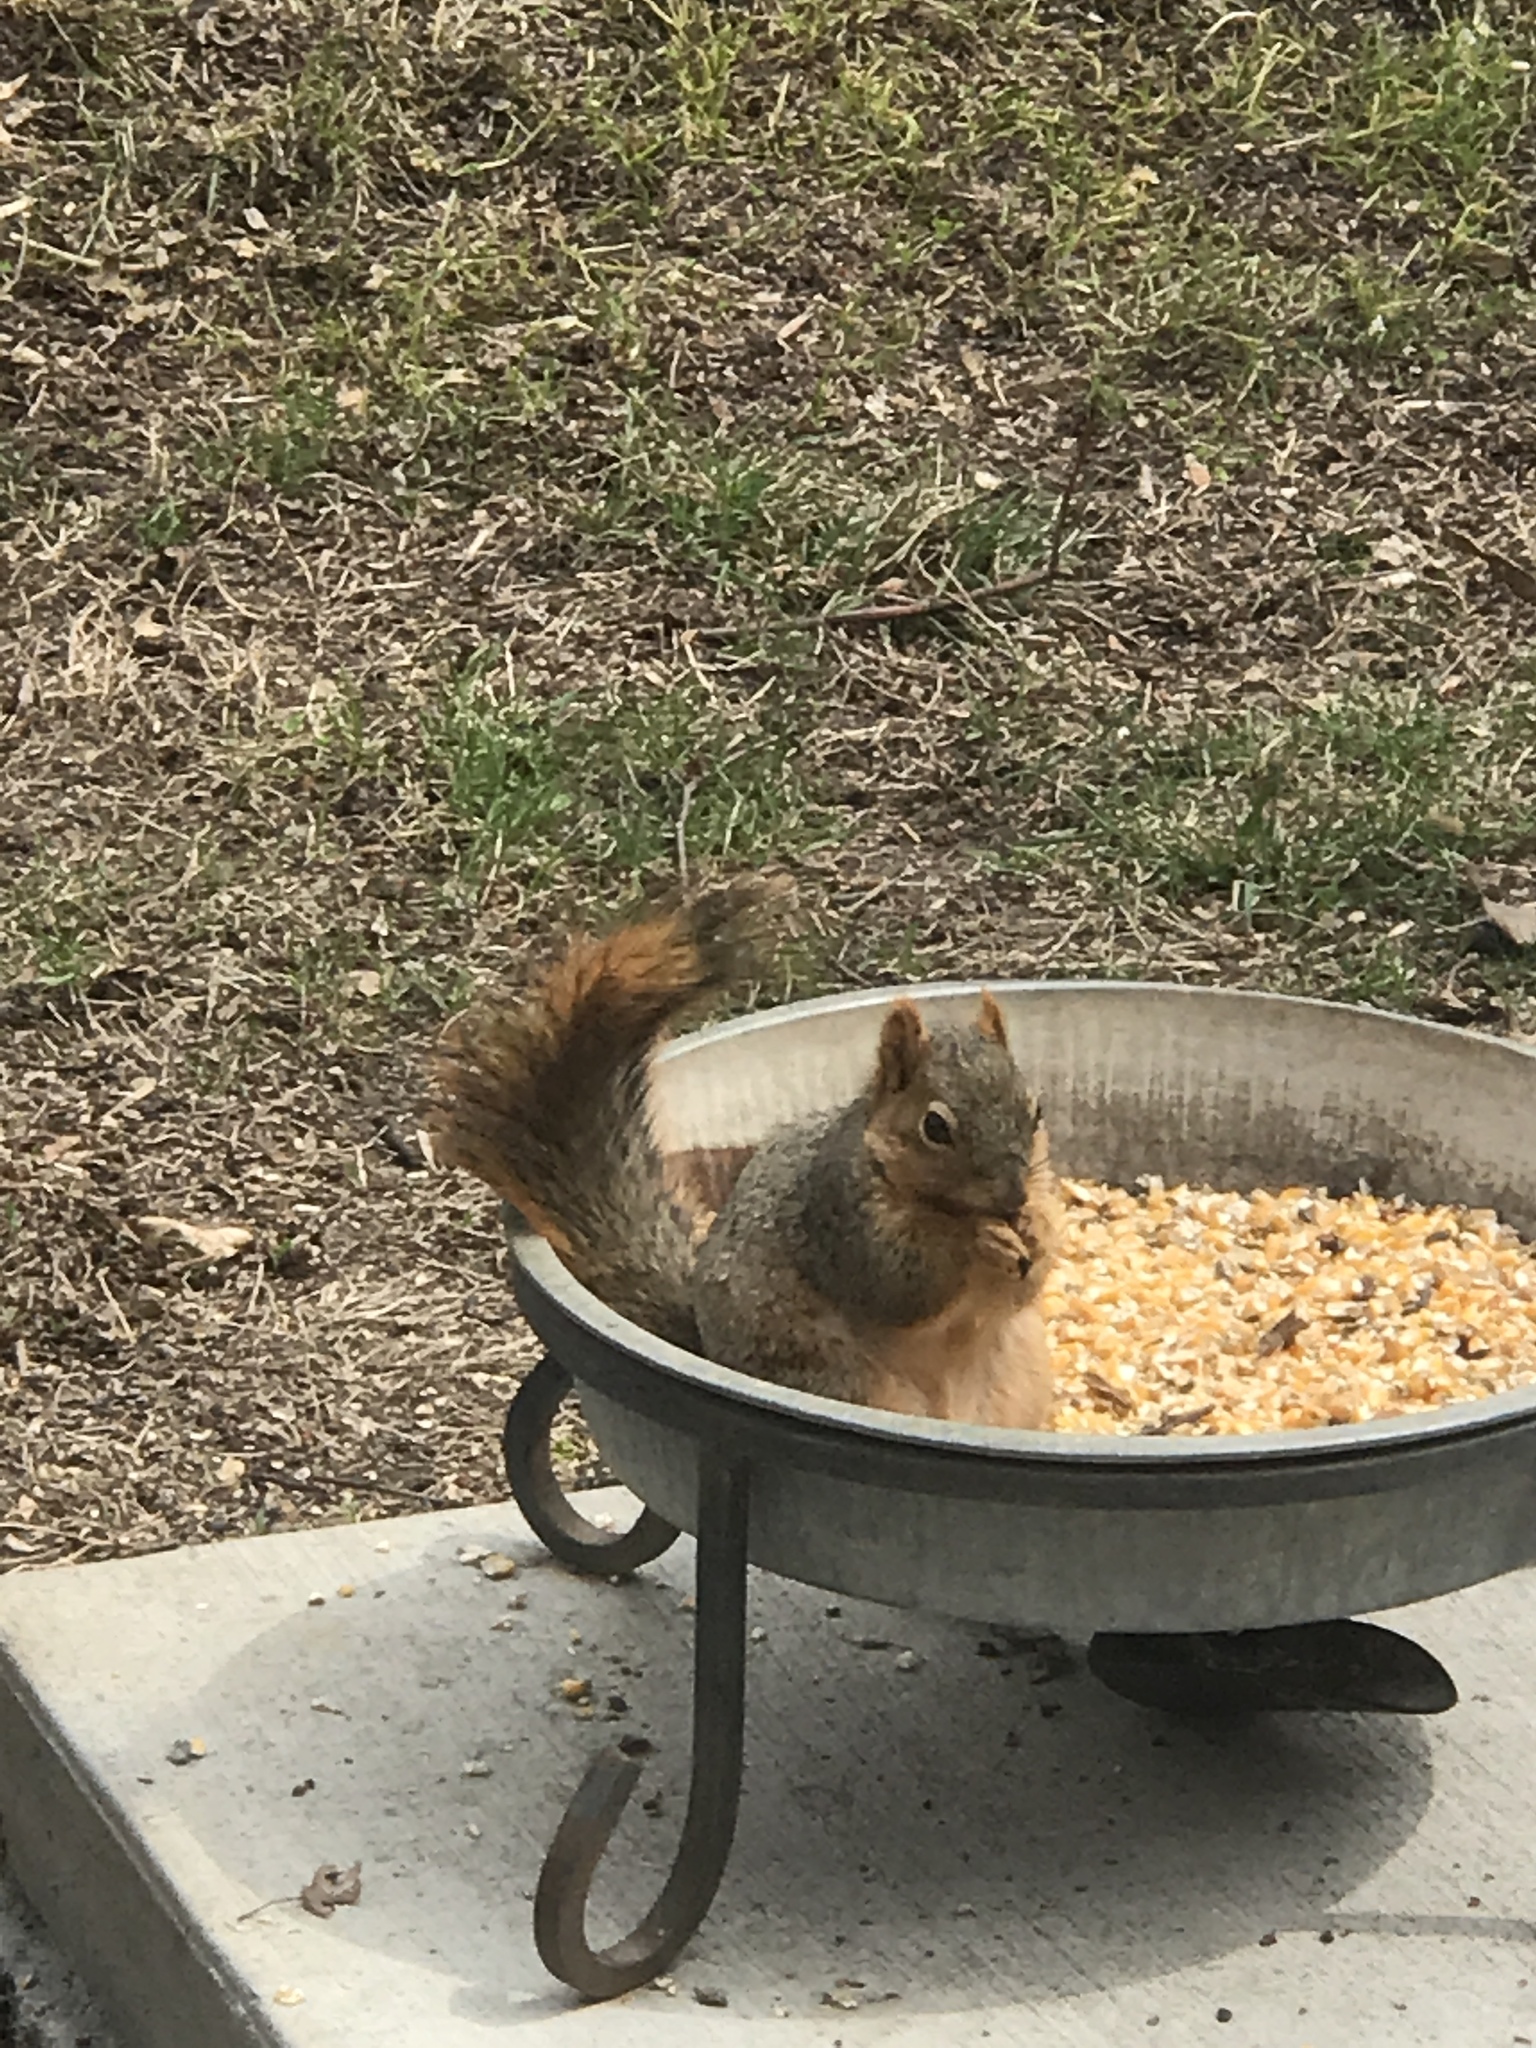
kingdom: Animalia
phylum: Chordata
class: Mammalia
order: Rodentia
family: Sciuridae
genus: Sciurus
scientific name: Sciurus niger
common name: Fox squirrel
